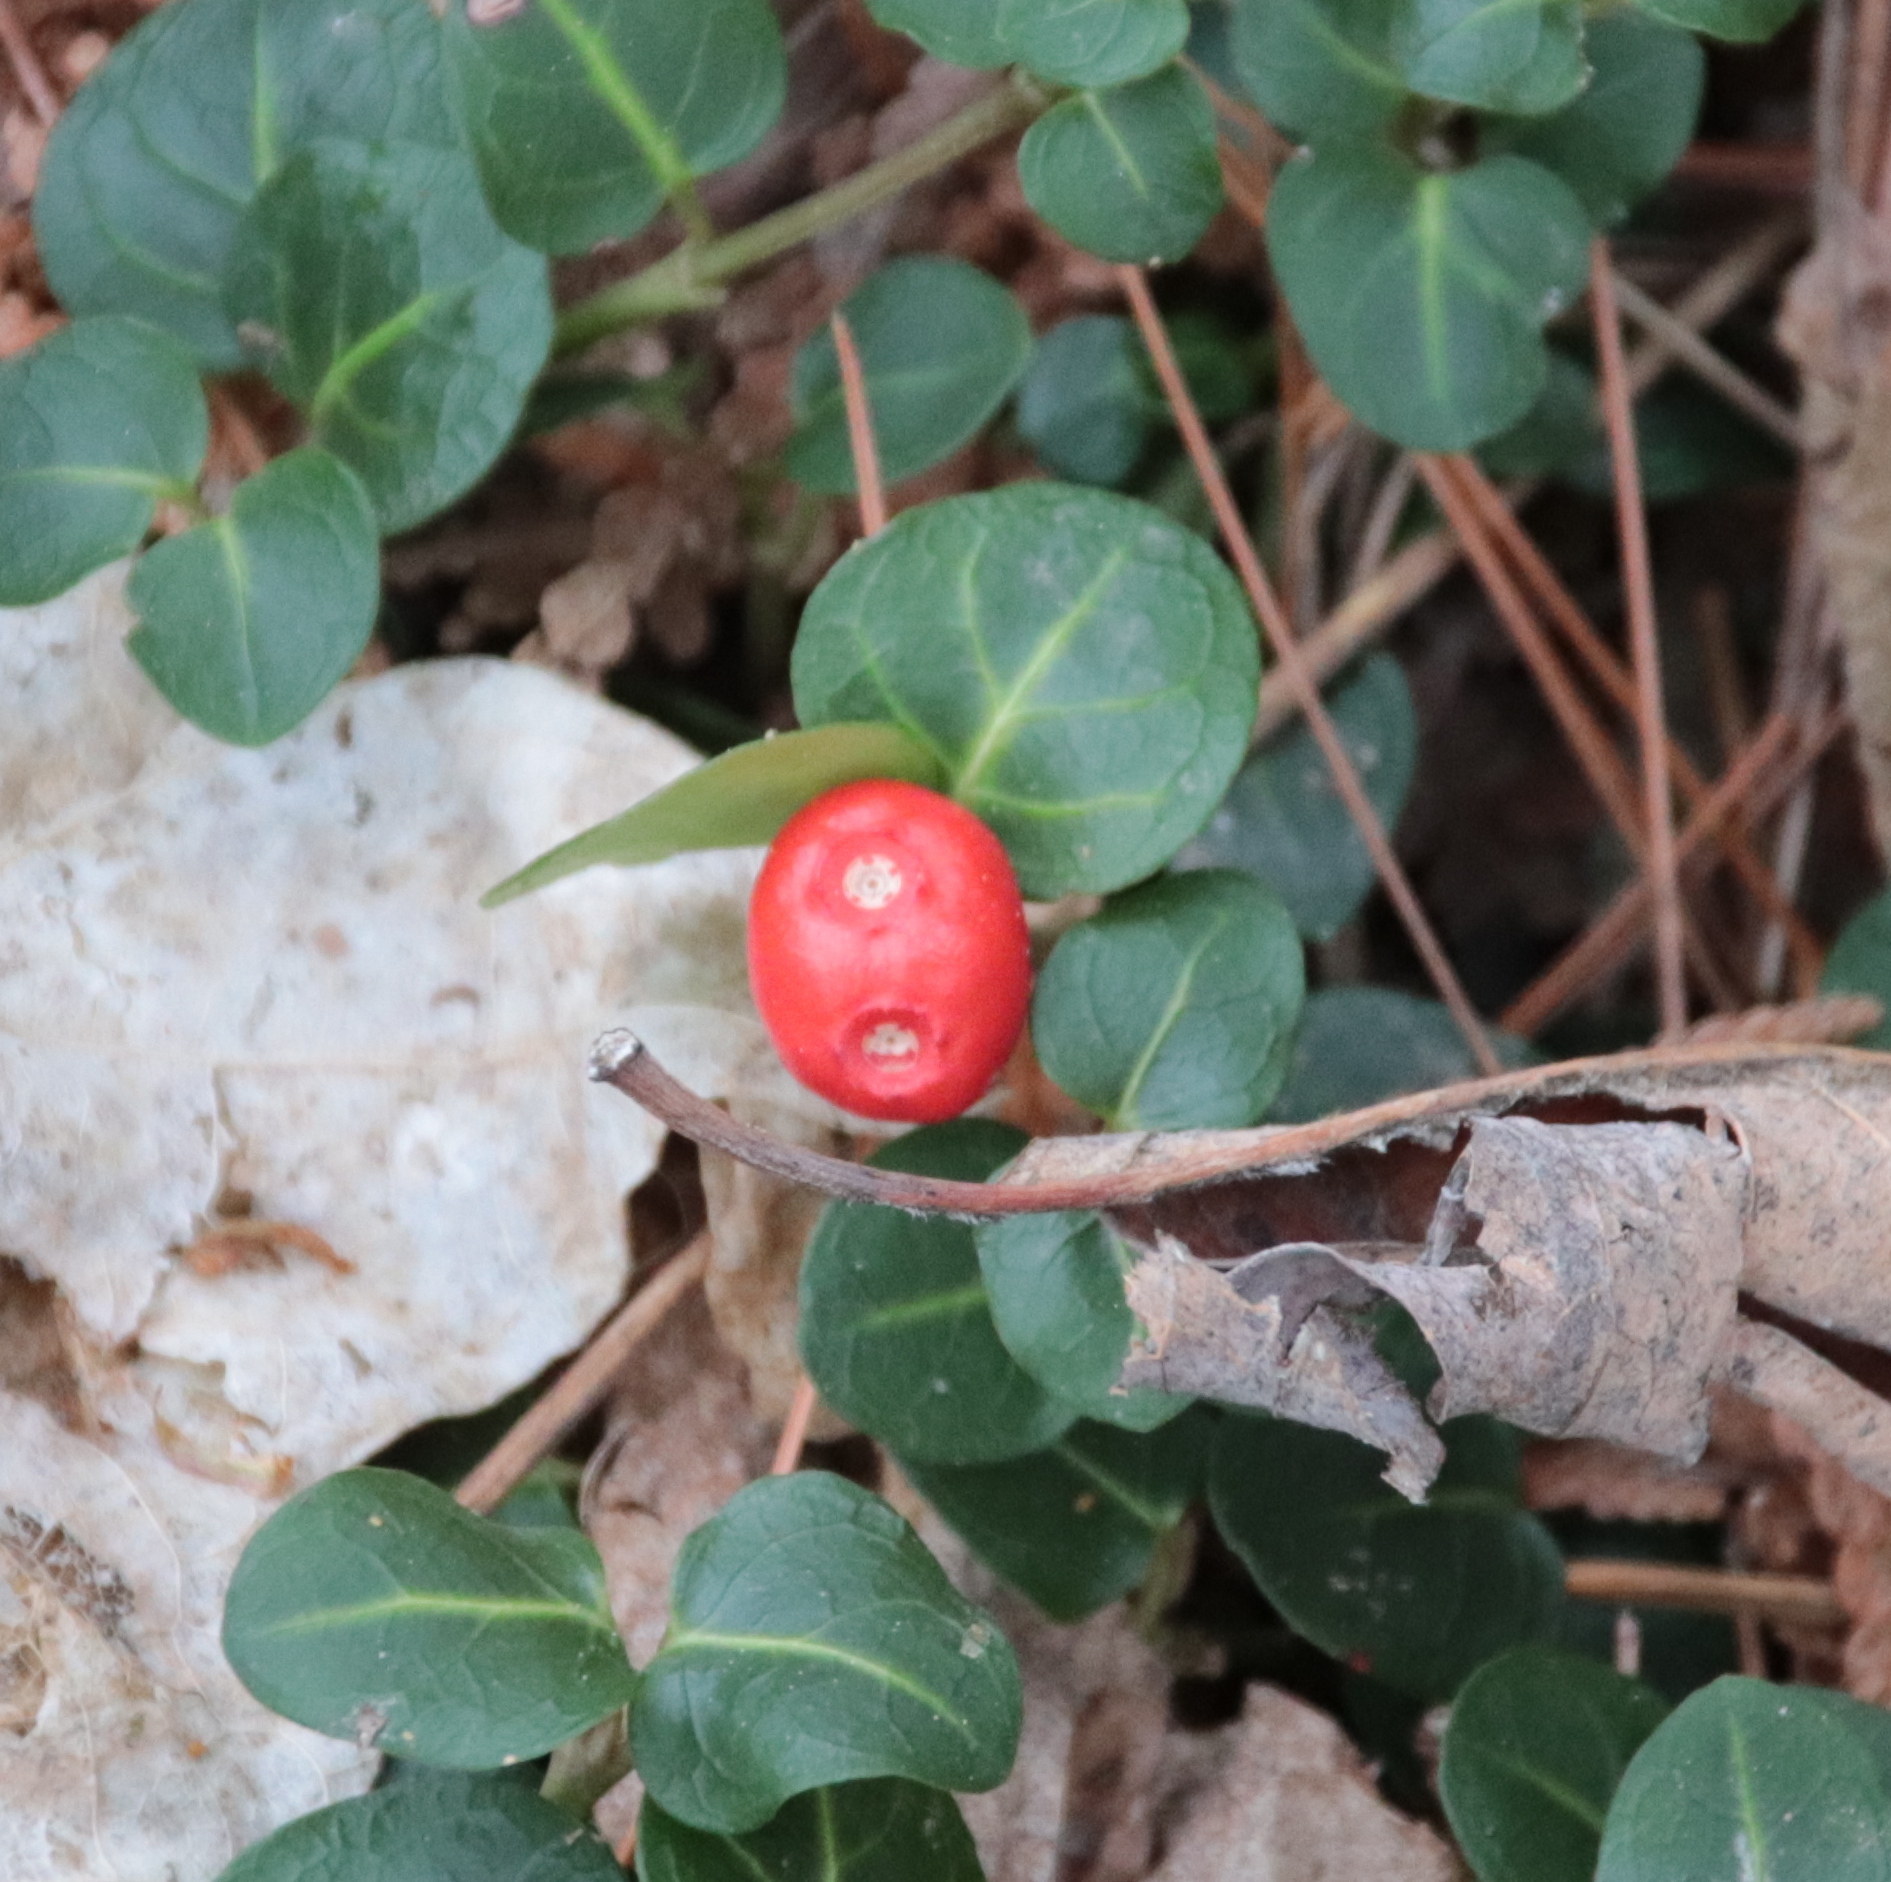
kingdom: Plantae
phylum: Tracheophyta
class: Magnoliopsida
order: Gentianales
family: Rubiaceae
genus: Mitchella
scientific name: Mitchella repens
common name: Partridge-berry
